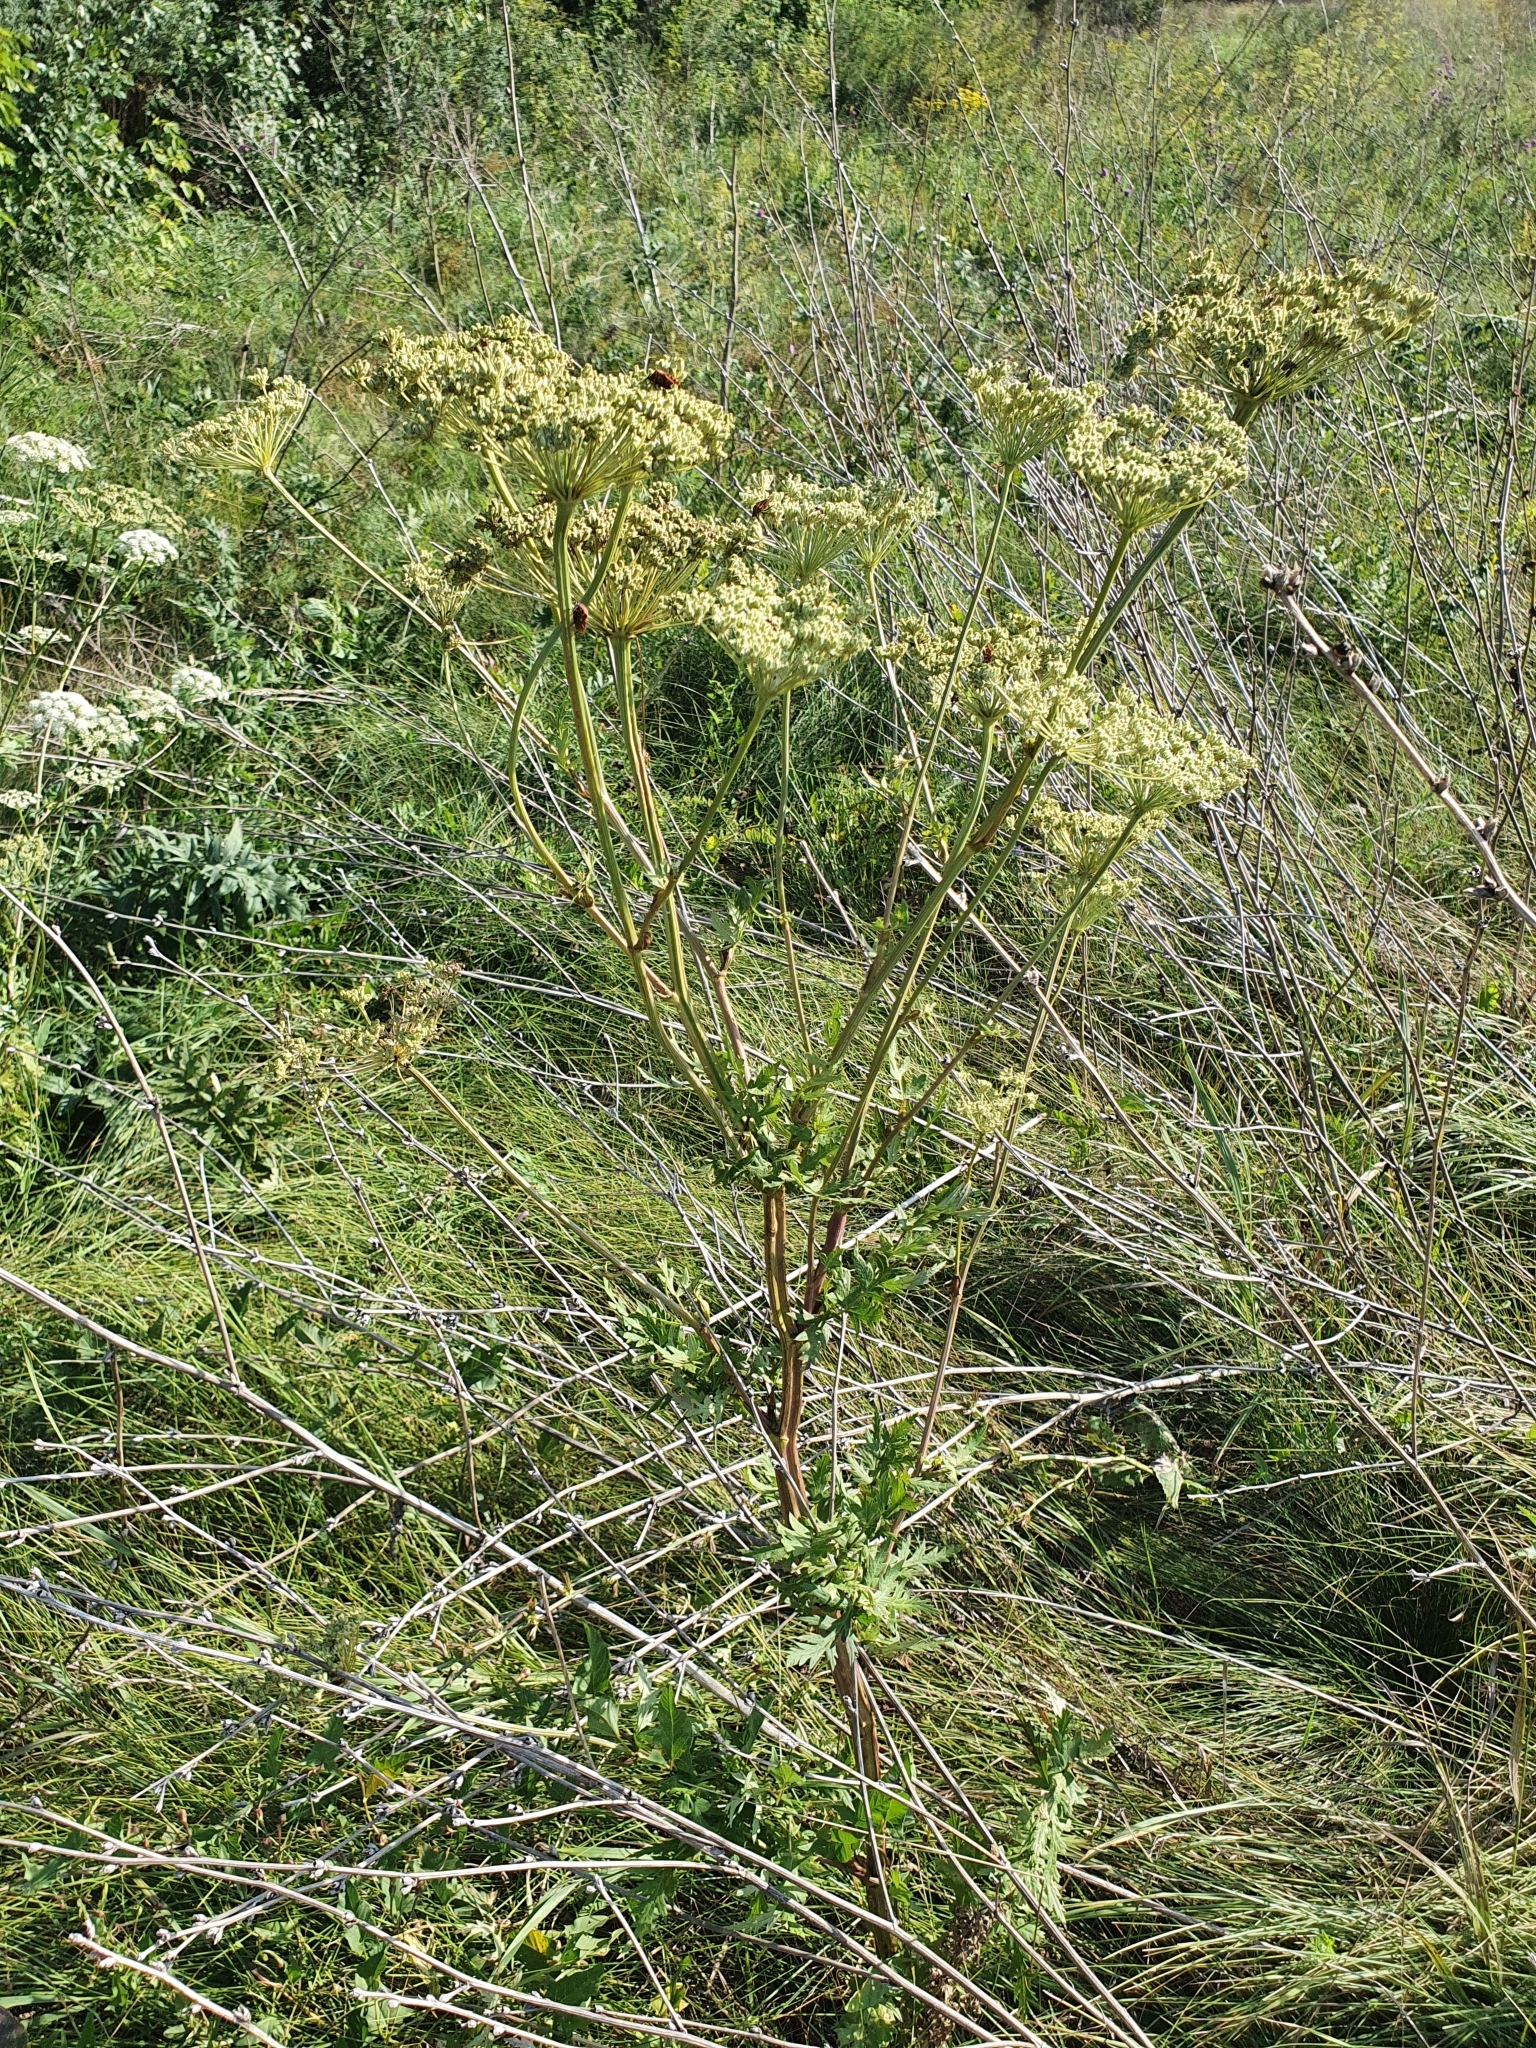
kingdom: Plantae
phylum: Tracheophyta
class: Magnoliopsida
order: Apiales
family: Apiaceae
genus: Seseli
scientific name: Seseli libanotis
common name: Mooncarrot
